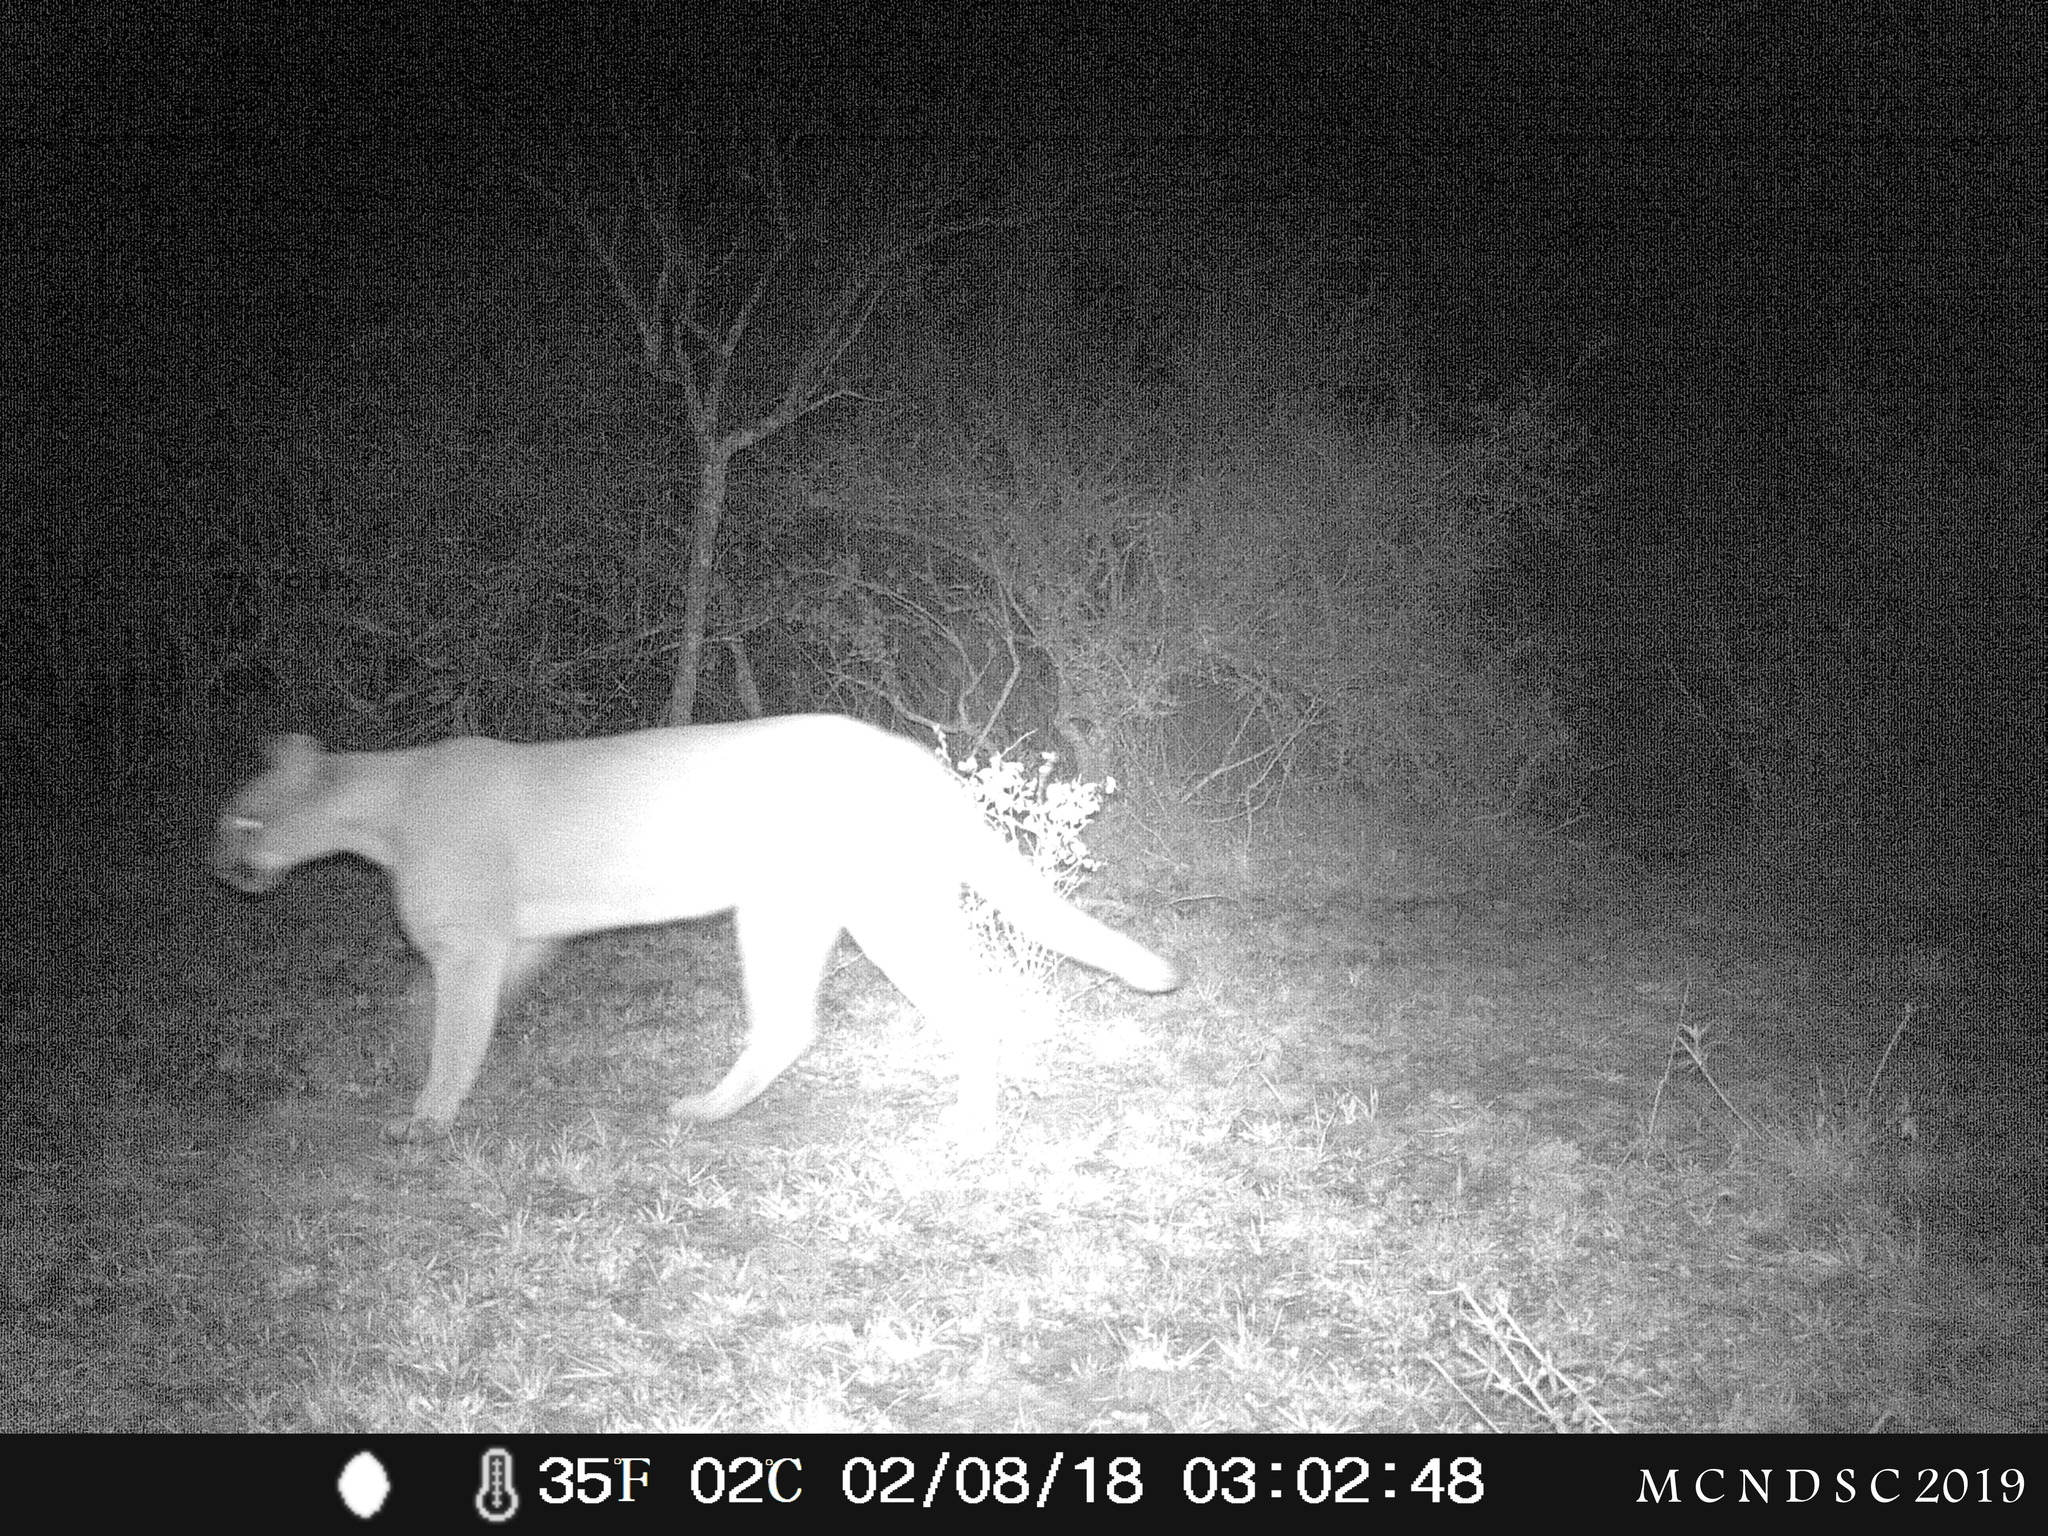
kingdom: Animalia
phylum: Chordata
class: Mammalia
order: Carnivora
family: Felidae
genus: Puma
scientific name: Puma concolor
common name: Puma
